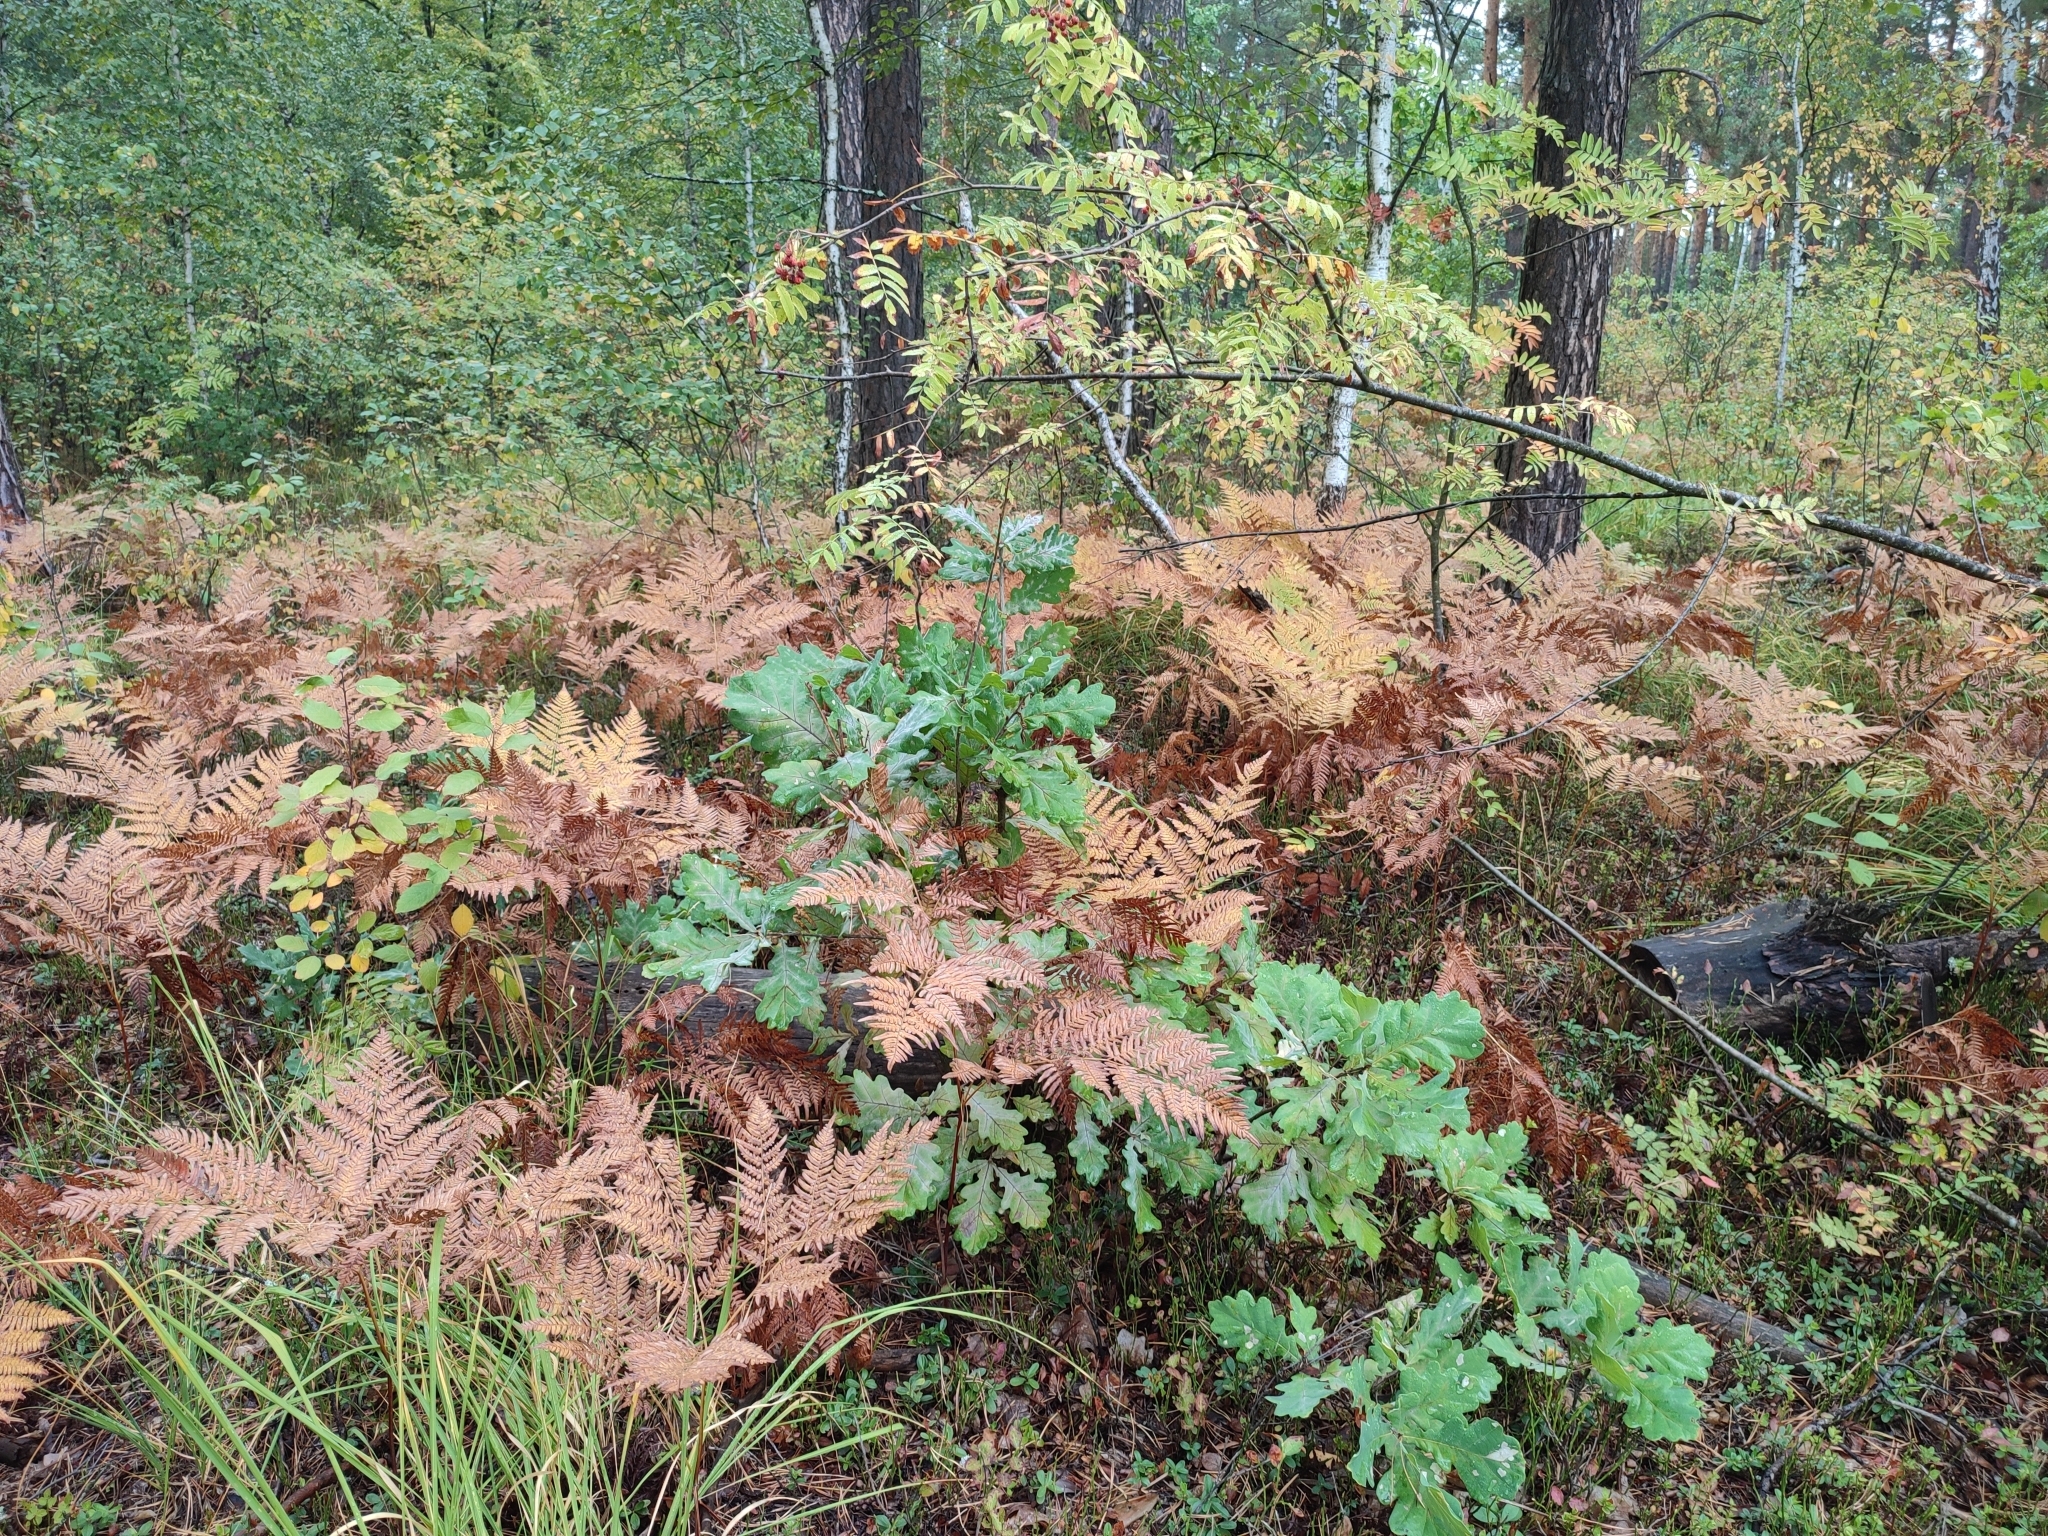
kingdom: Plantae
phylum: Tracheophyta
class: Magnoliopsida
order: Fagales
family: Fagaceae
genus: Quercus
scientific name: Quercus robur
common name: Pedunculate oak
